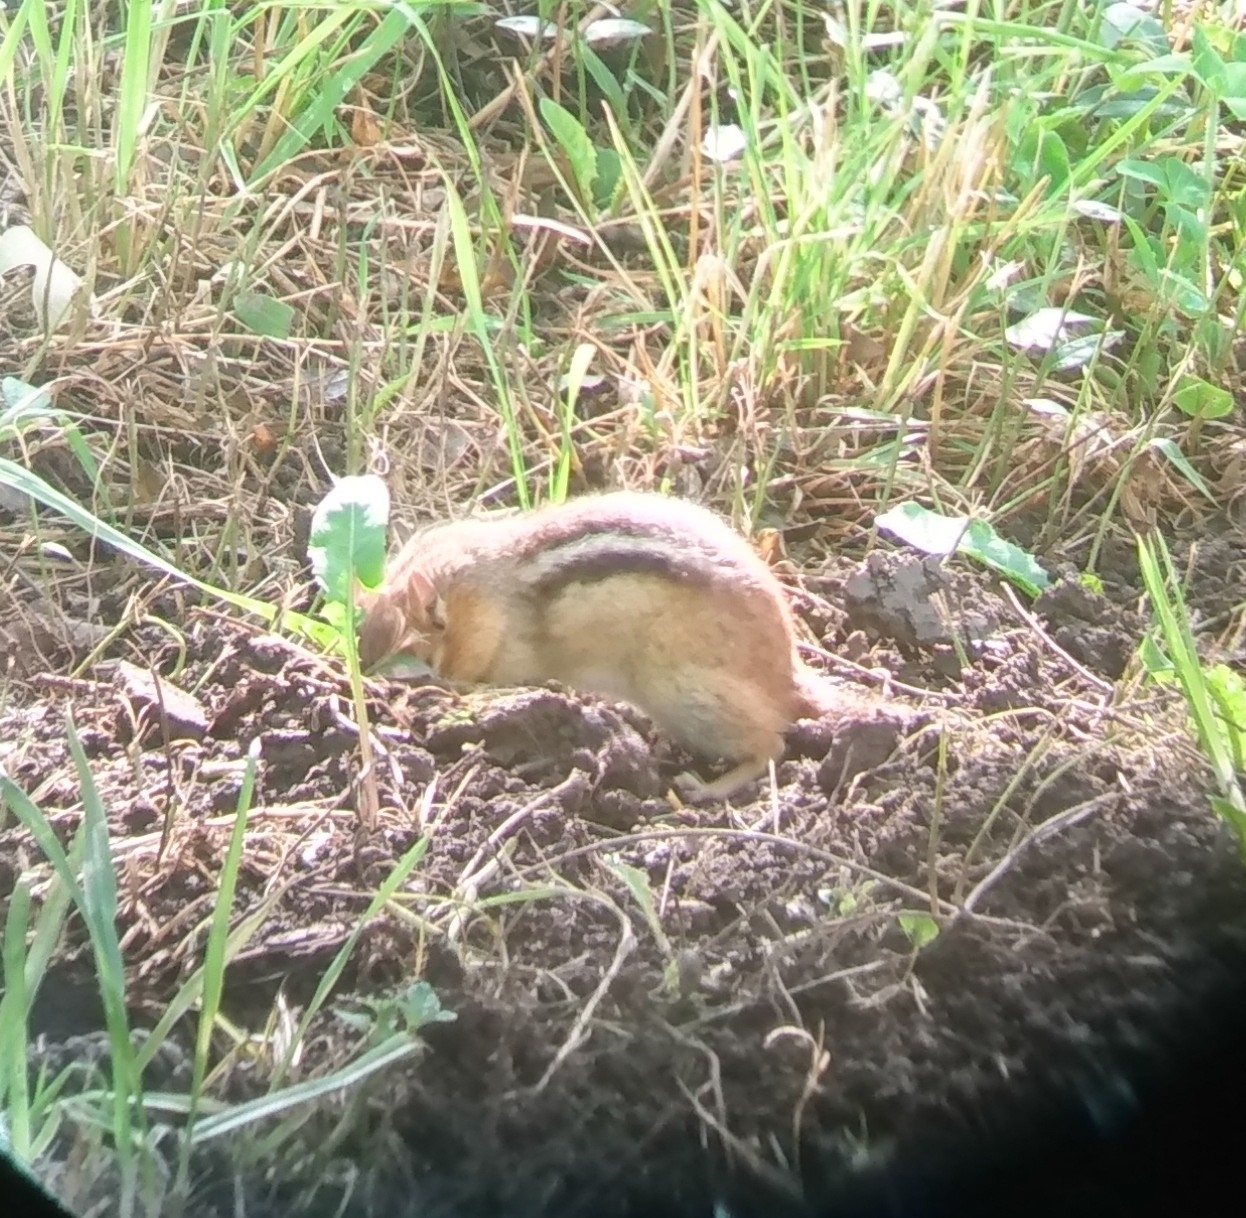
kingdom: Animalia
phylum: Chordata
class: Mammalia
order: Rodentia
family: Sciuridae
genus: Tamias
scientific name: Tamias striatus
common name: Eastern chipmunk
